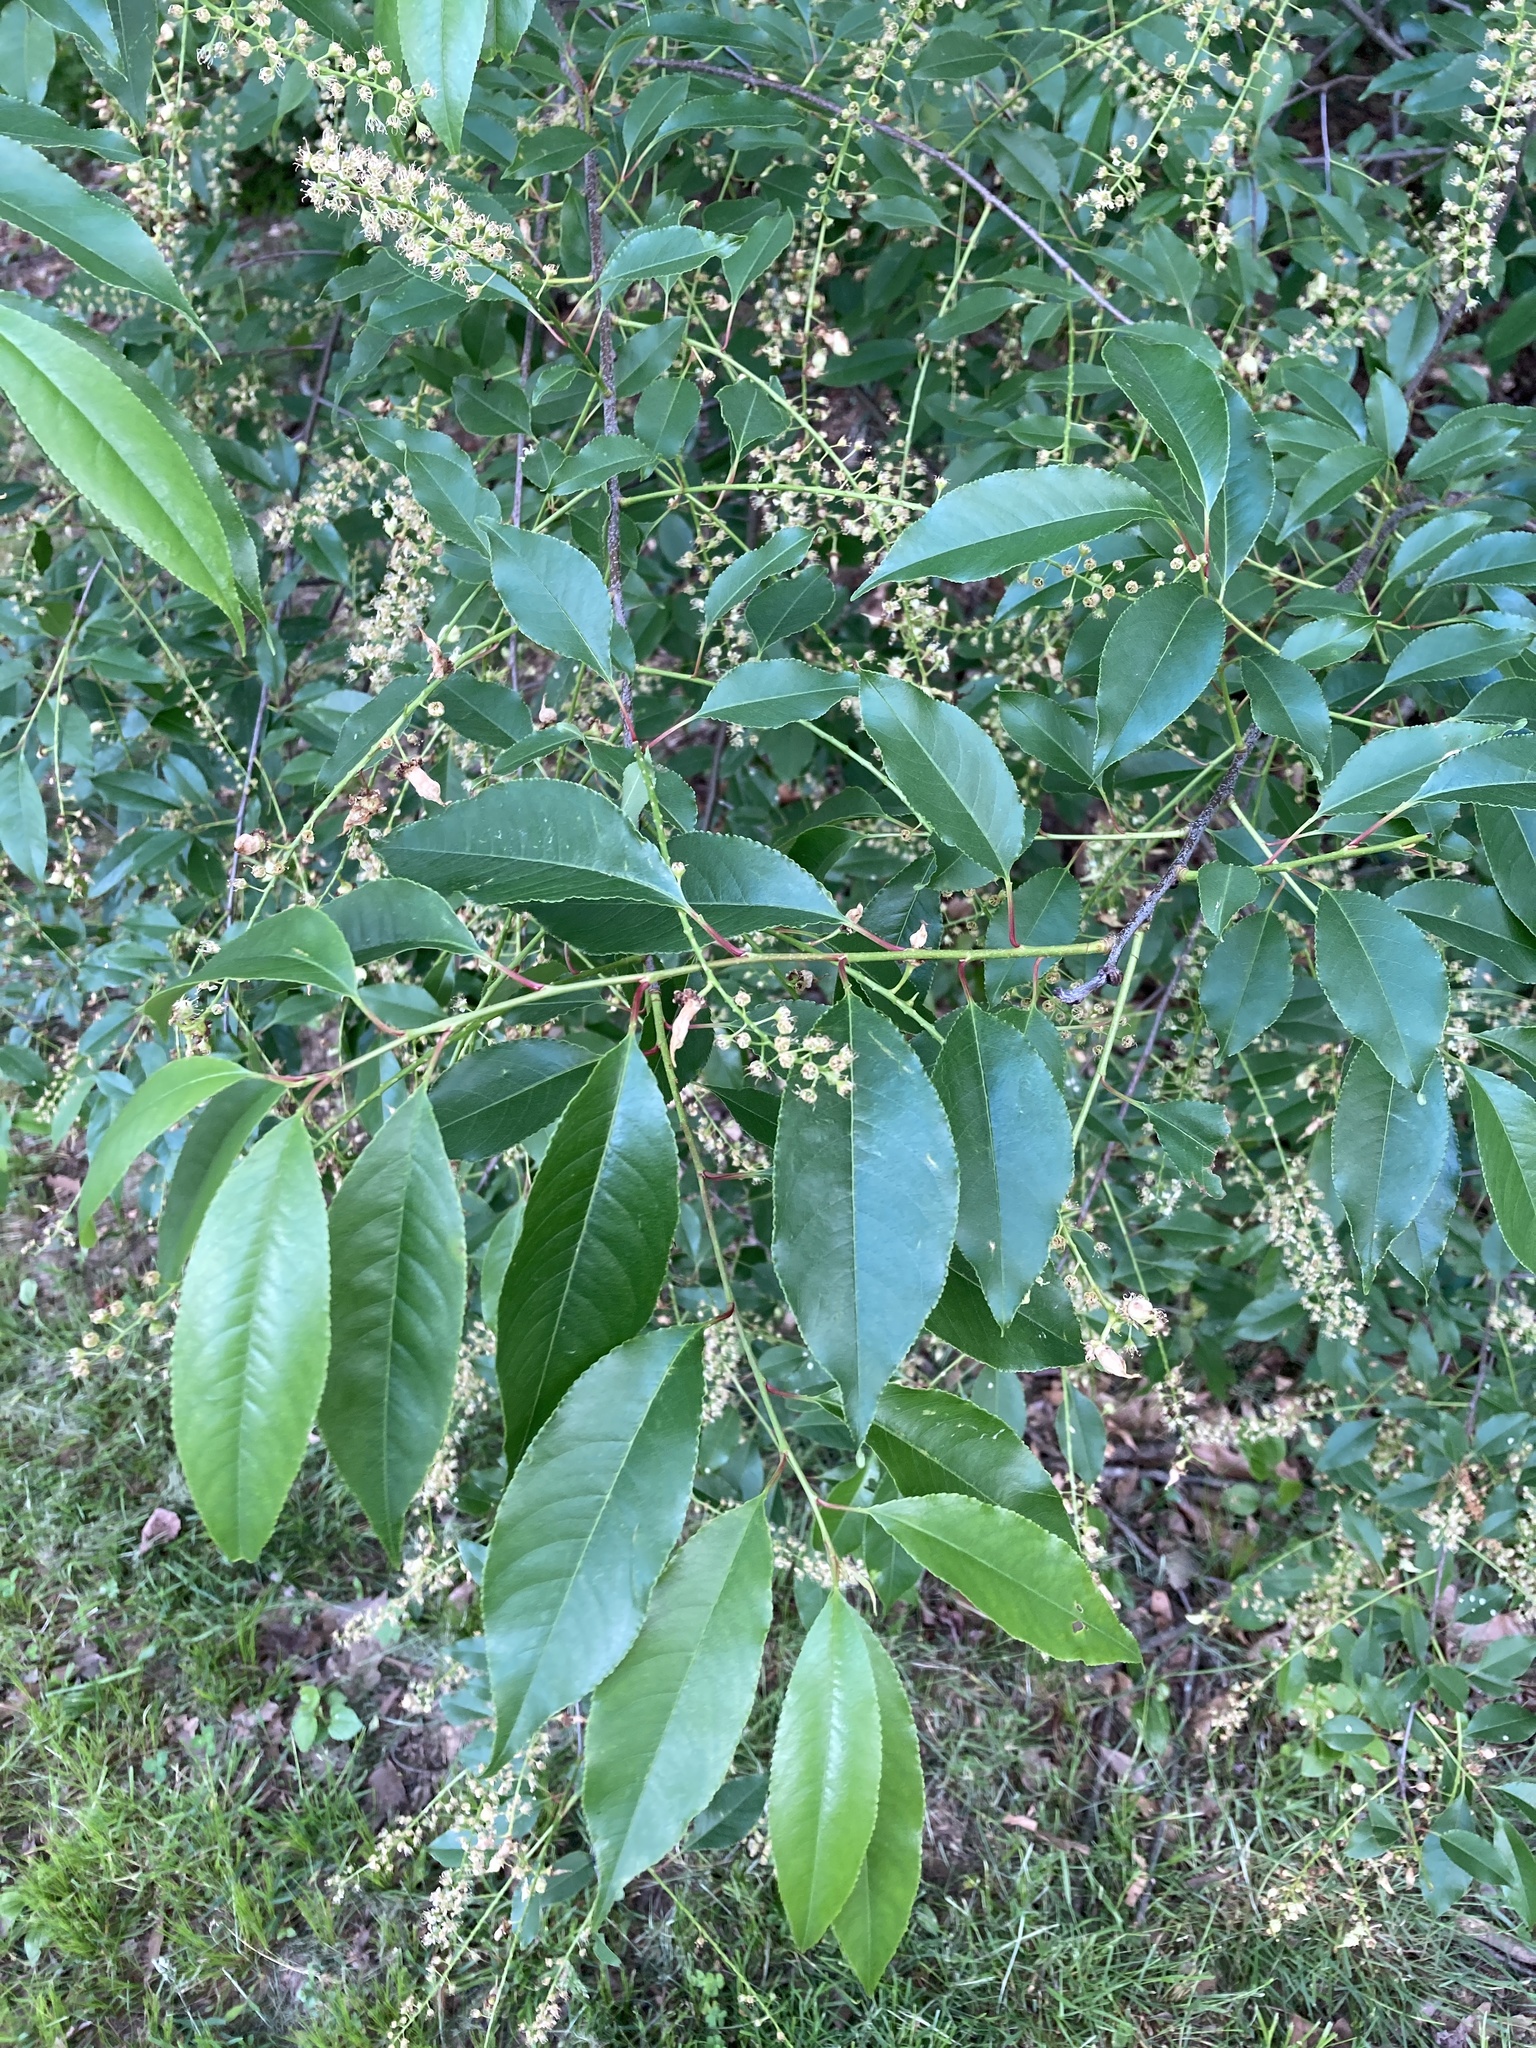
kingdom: Plantae
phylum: Tracheophyta
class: Magnoliopsida
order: Rosales
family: Rosaceae
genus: Prunus
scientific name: Prunus serotina
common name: Black cherry
